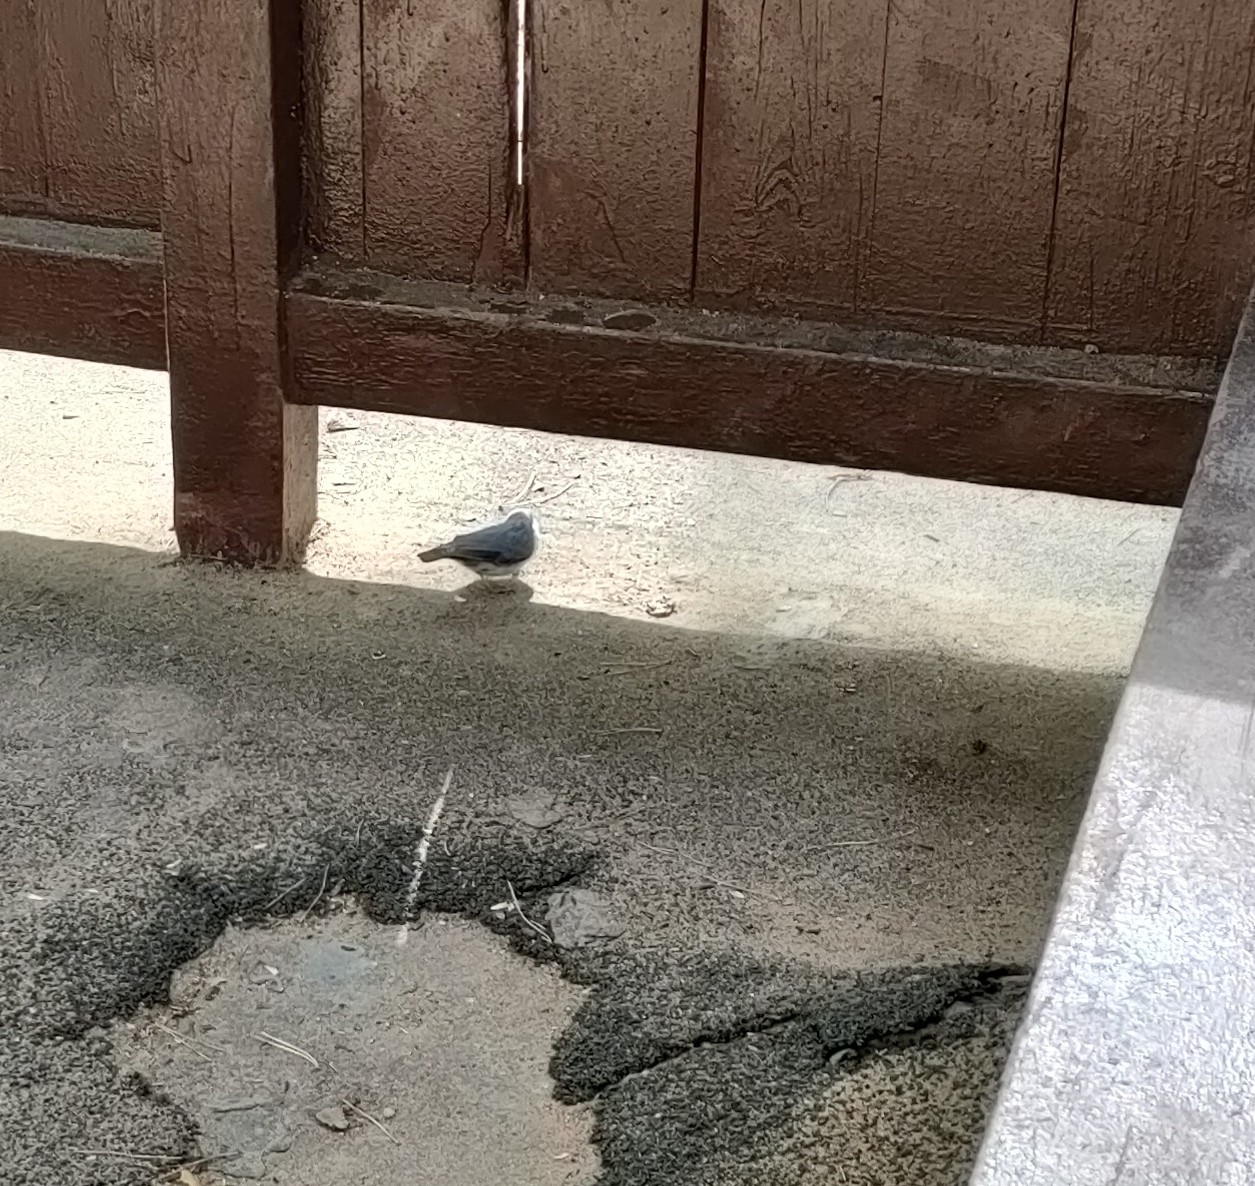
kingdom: Animalia
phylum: Chordata
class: Aves
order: Passeriformes
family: Sittidae
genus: Sitta
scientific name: Sitta europaea
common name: Eurasian nuthatch
